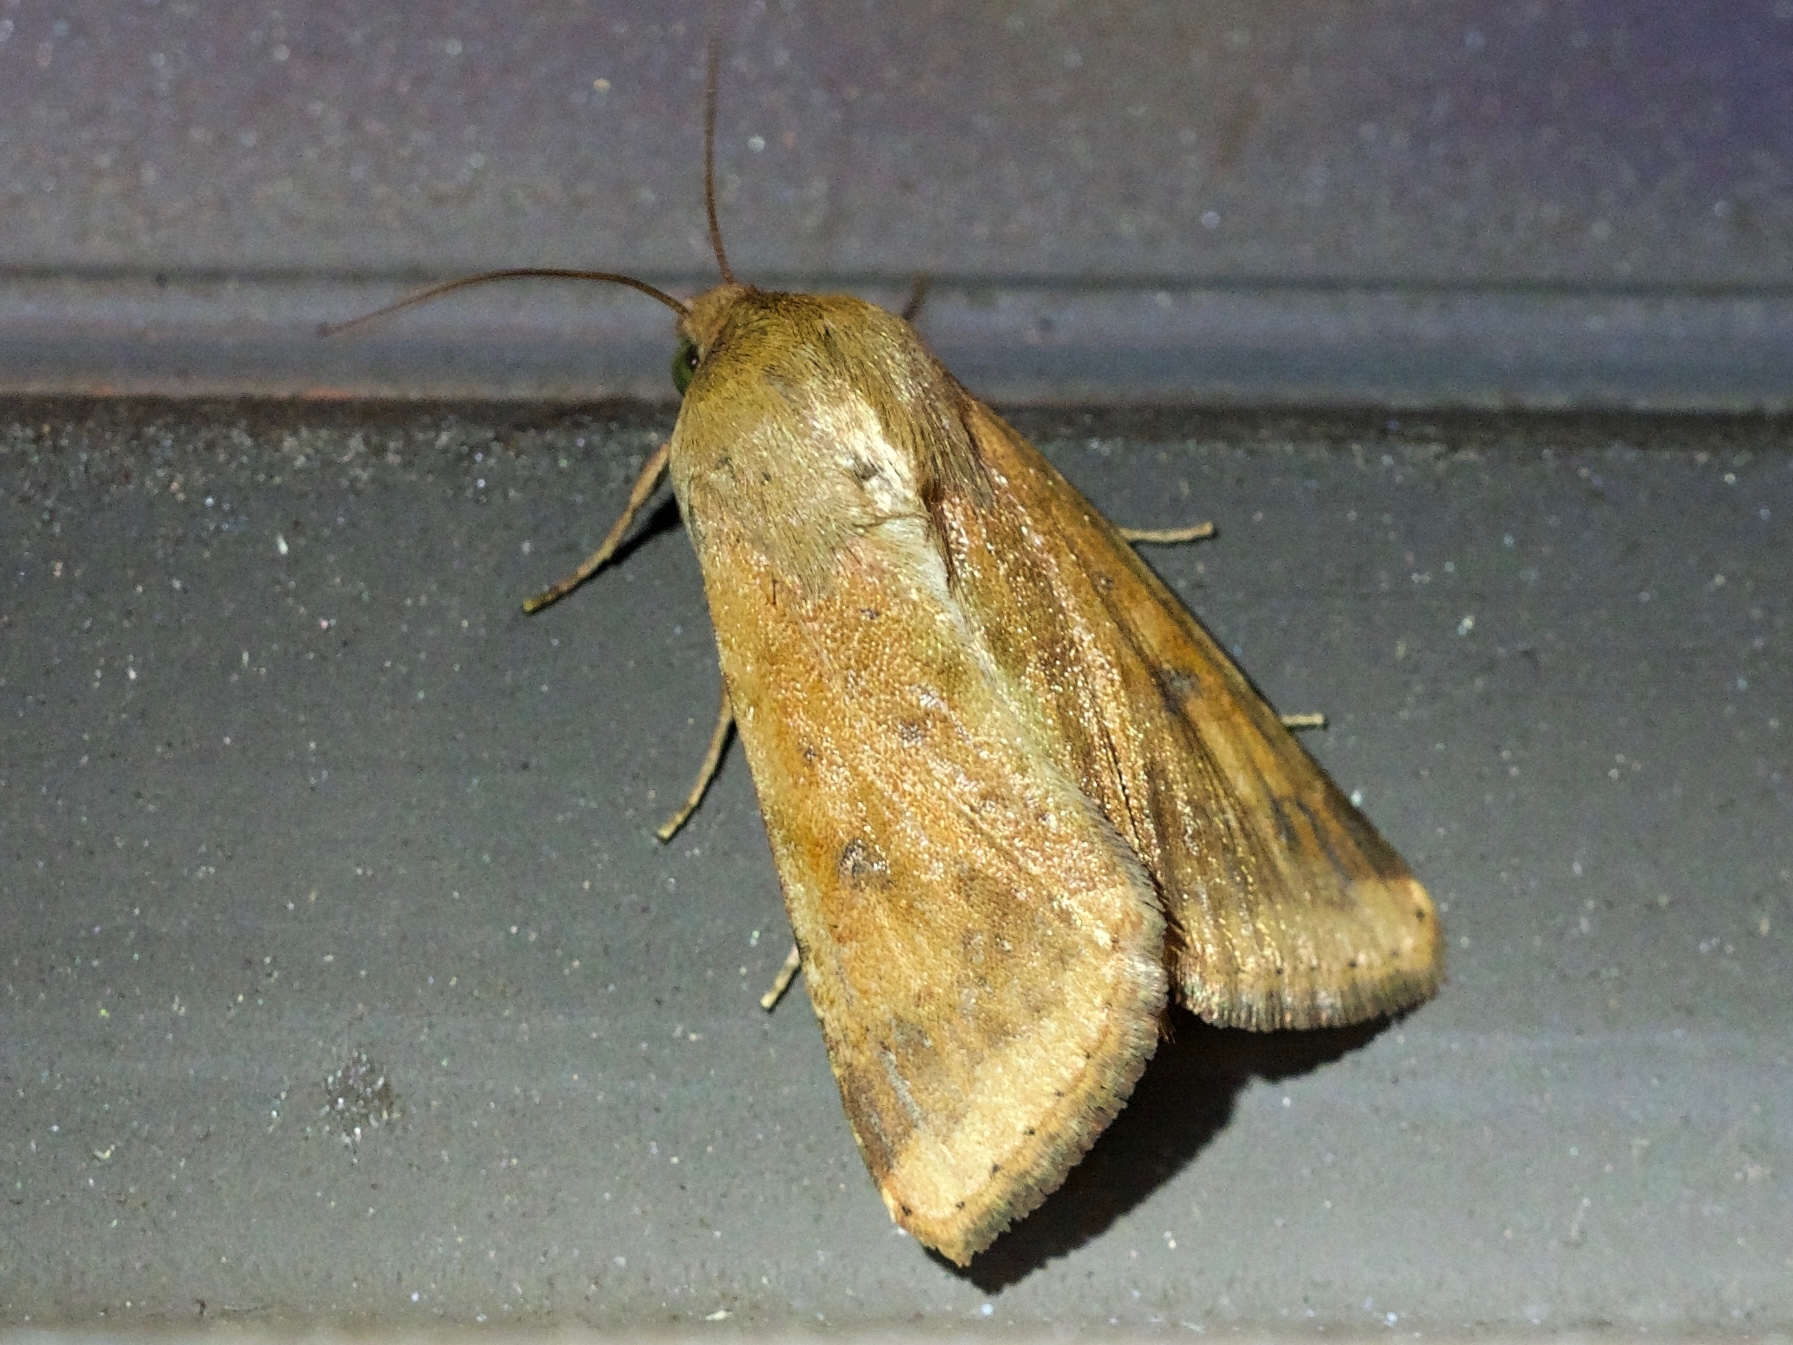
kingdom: Animalia
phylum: Arthropoda
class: Insecta
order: Lepidoptera
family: Noctuidae
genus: Helicoverpa
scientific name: Helicoverpa zea
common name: Bollworm
